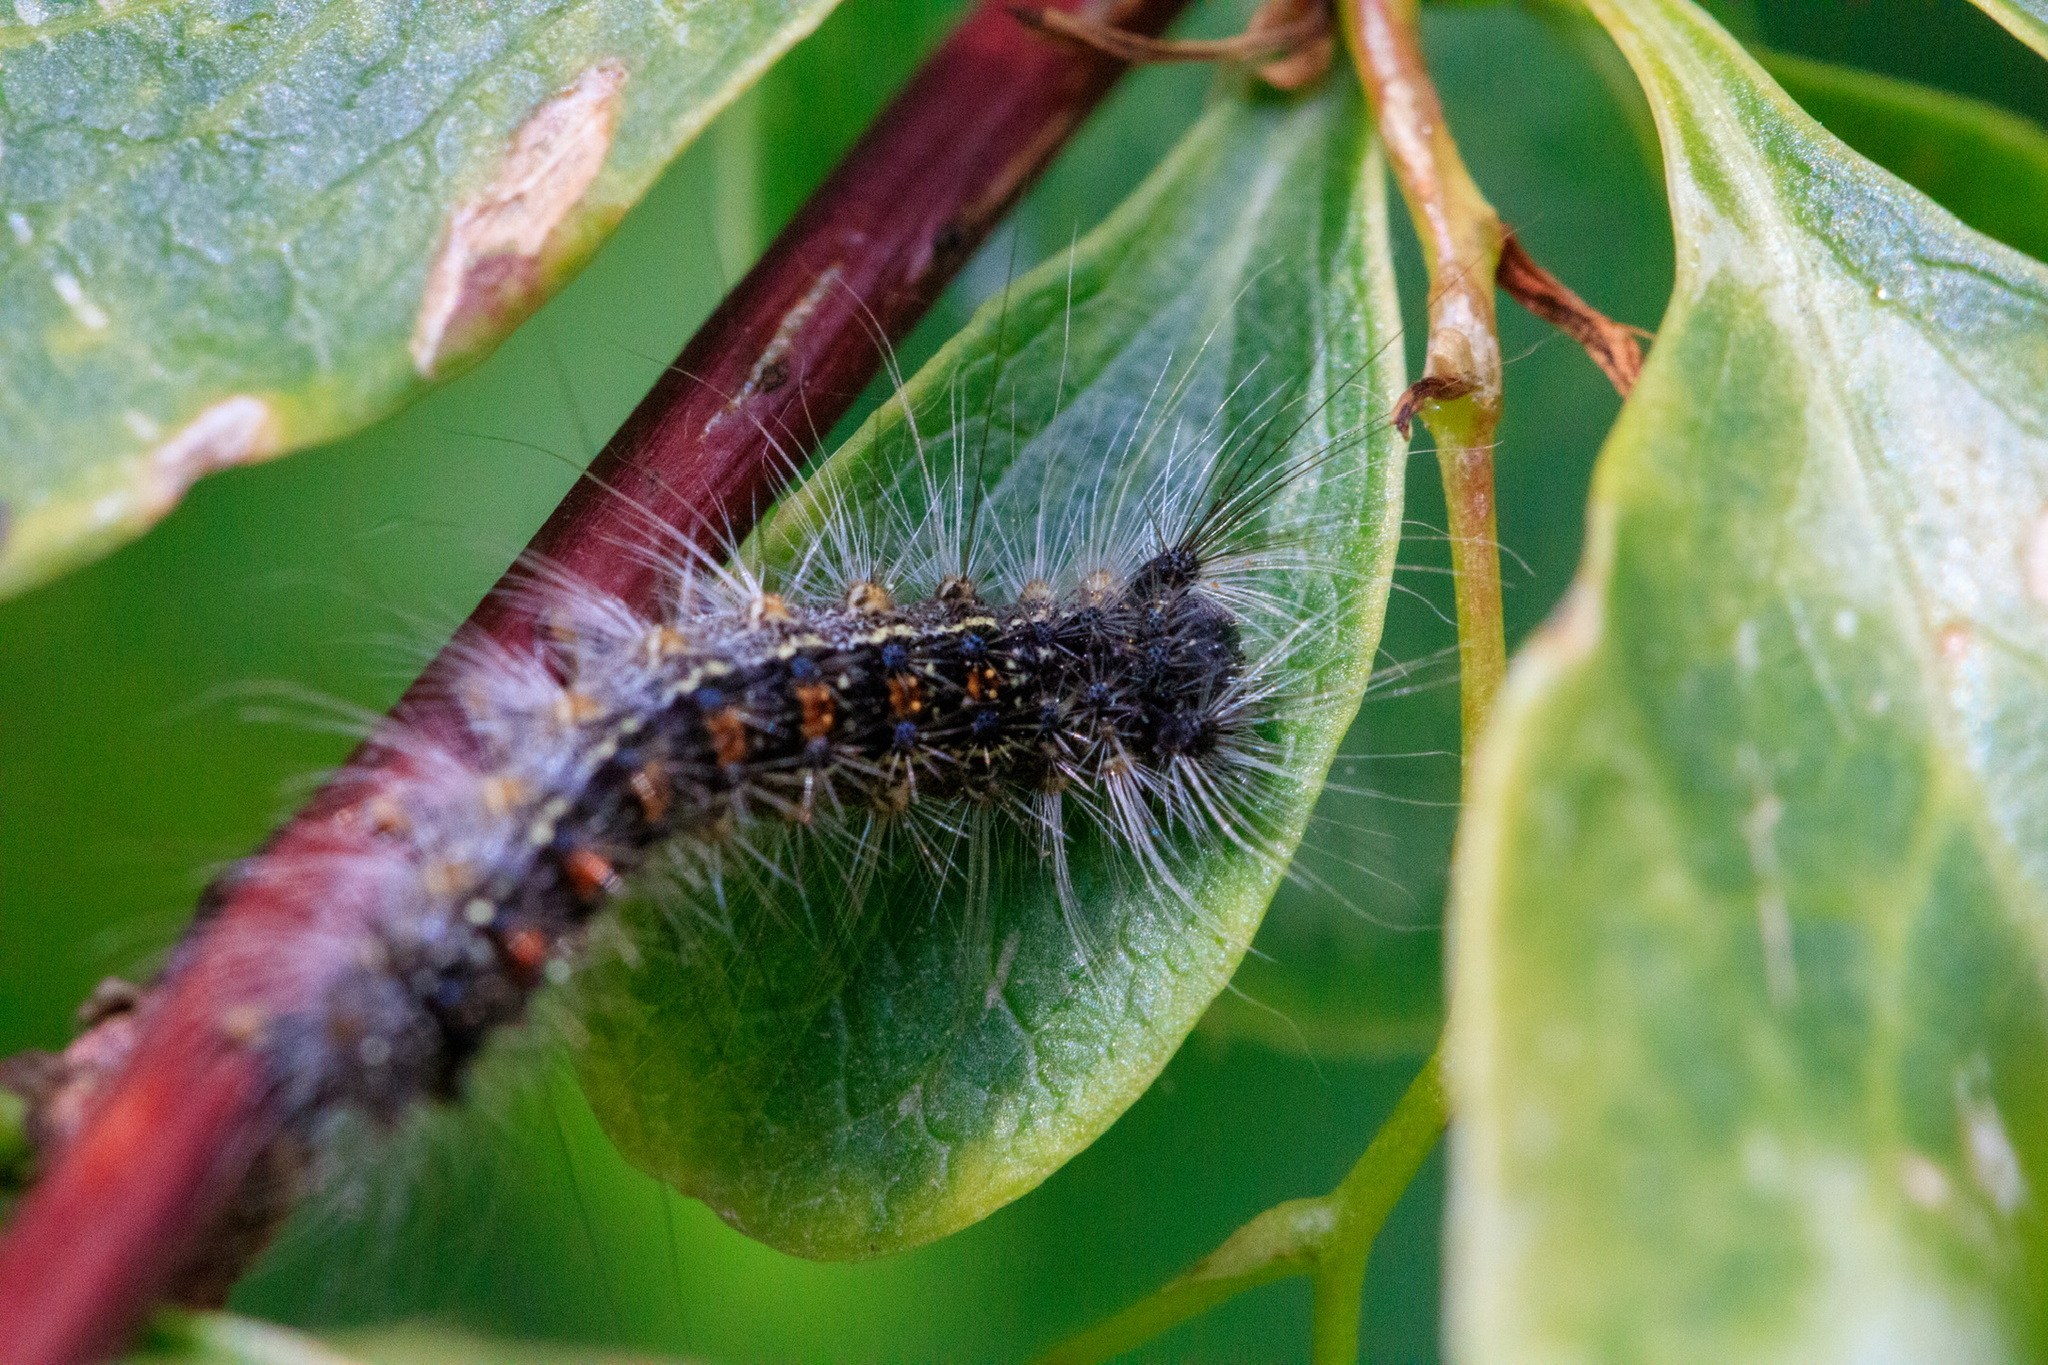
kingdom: Animalia
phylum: Arthropoda
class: Insecta
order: Lepidoptera
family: Erebidae
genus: Lymantria
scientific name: Lymantria dispar
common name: Gypsy moth
